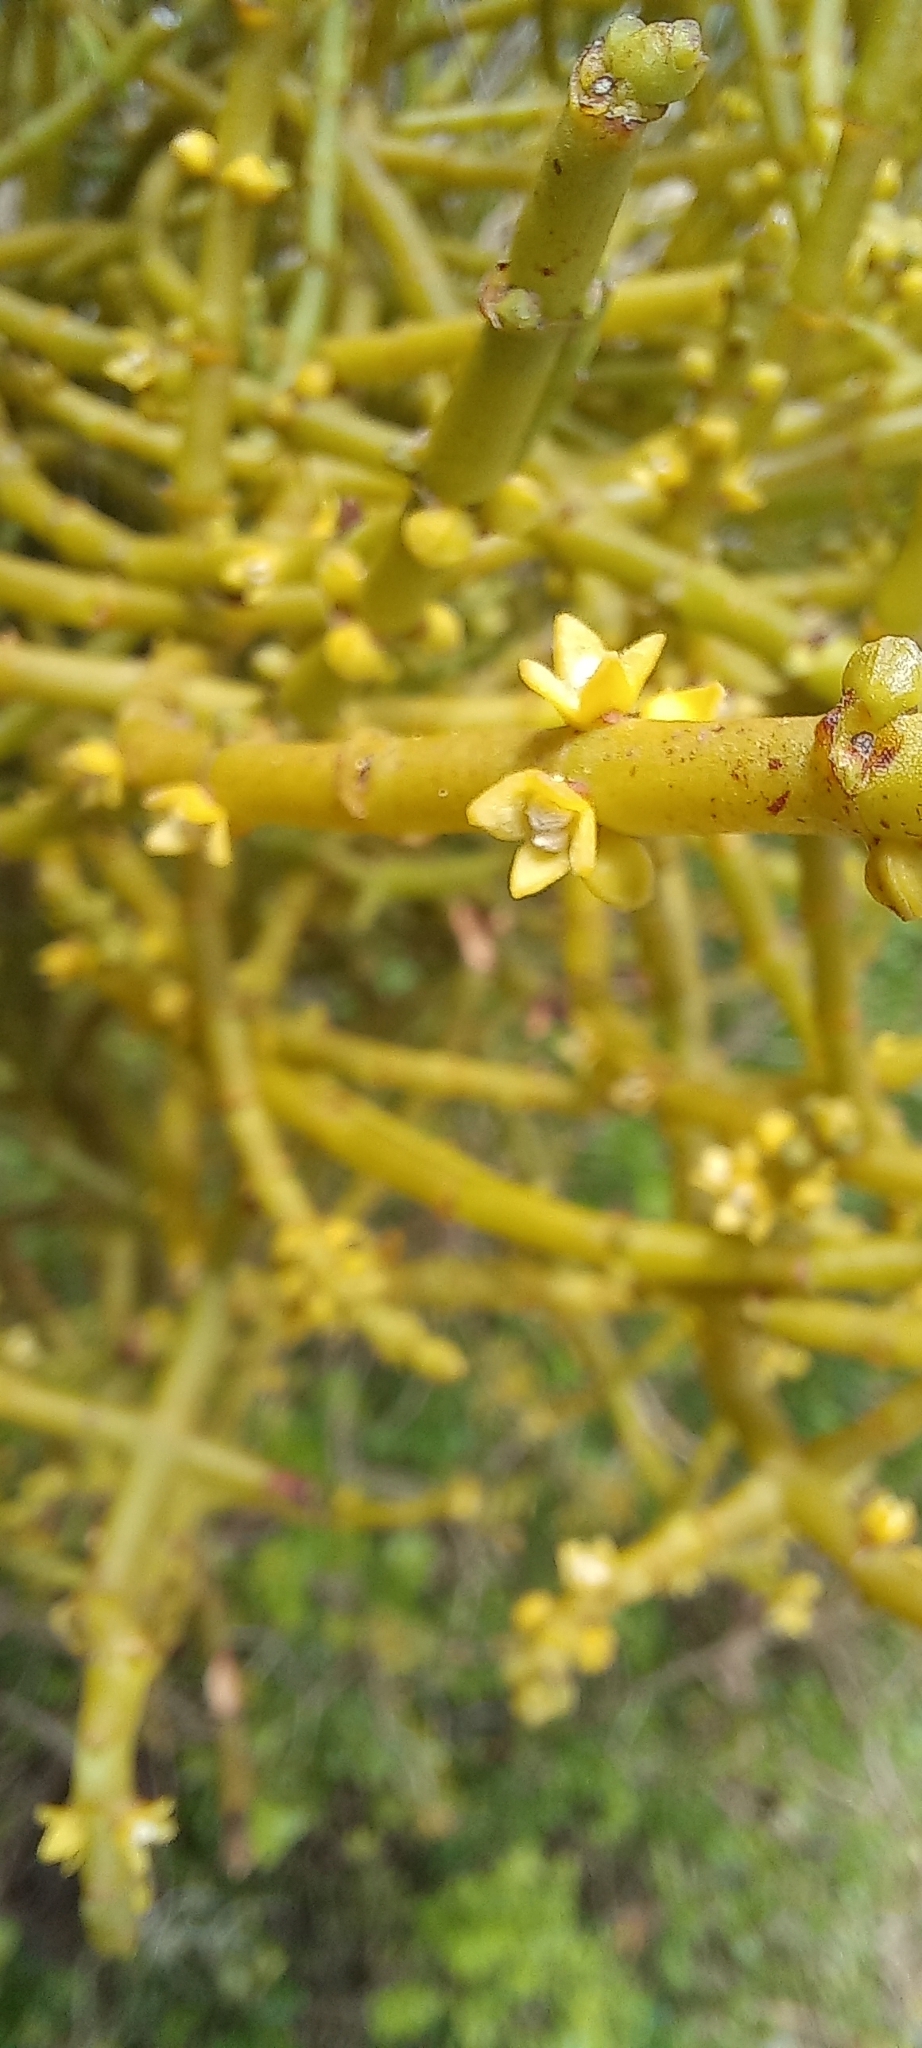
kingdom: Plantae
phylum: Tracheophyta
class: Magnoliopsida
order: Santalales
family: Viscaceae
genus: Viscum
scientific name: Viscum capense
